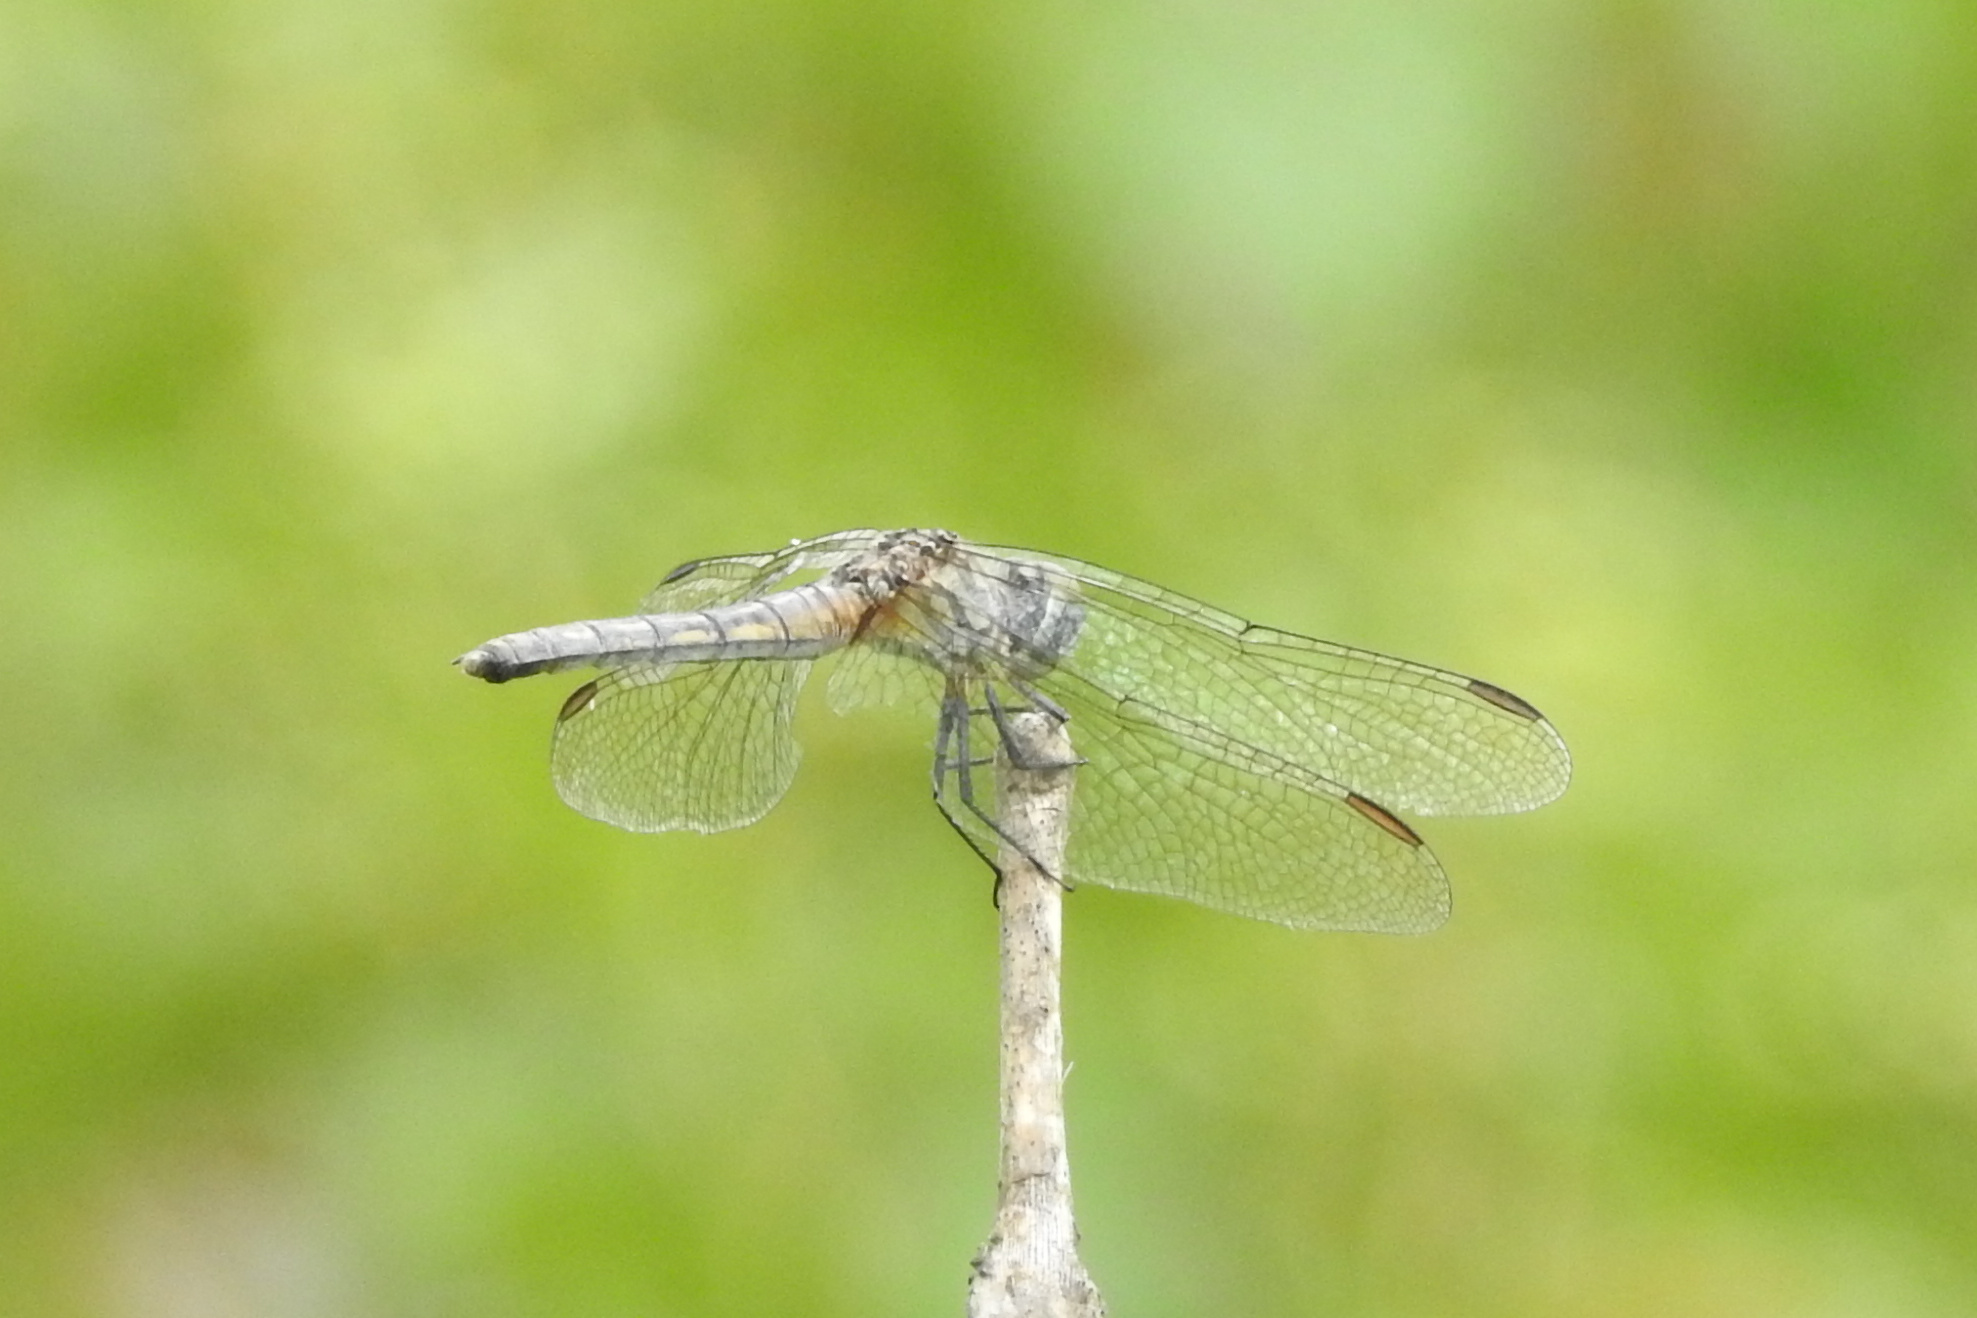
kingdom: Animalia
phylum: Arthropoda
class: Insecta
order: Odonata
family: Libellulidae
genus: Pachydiplax
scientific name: Pachydiplax longipennis
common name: Blue dasher
